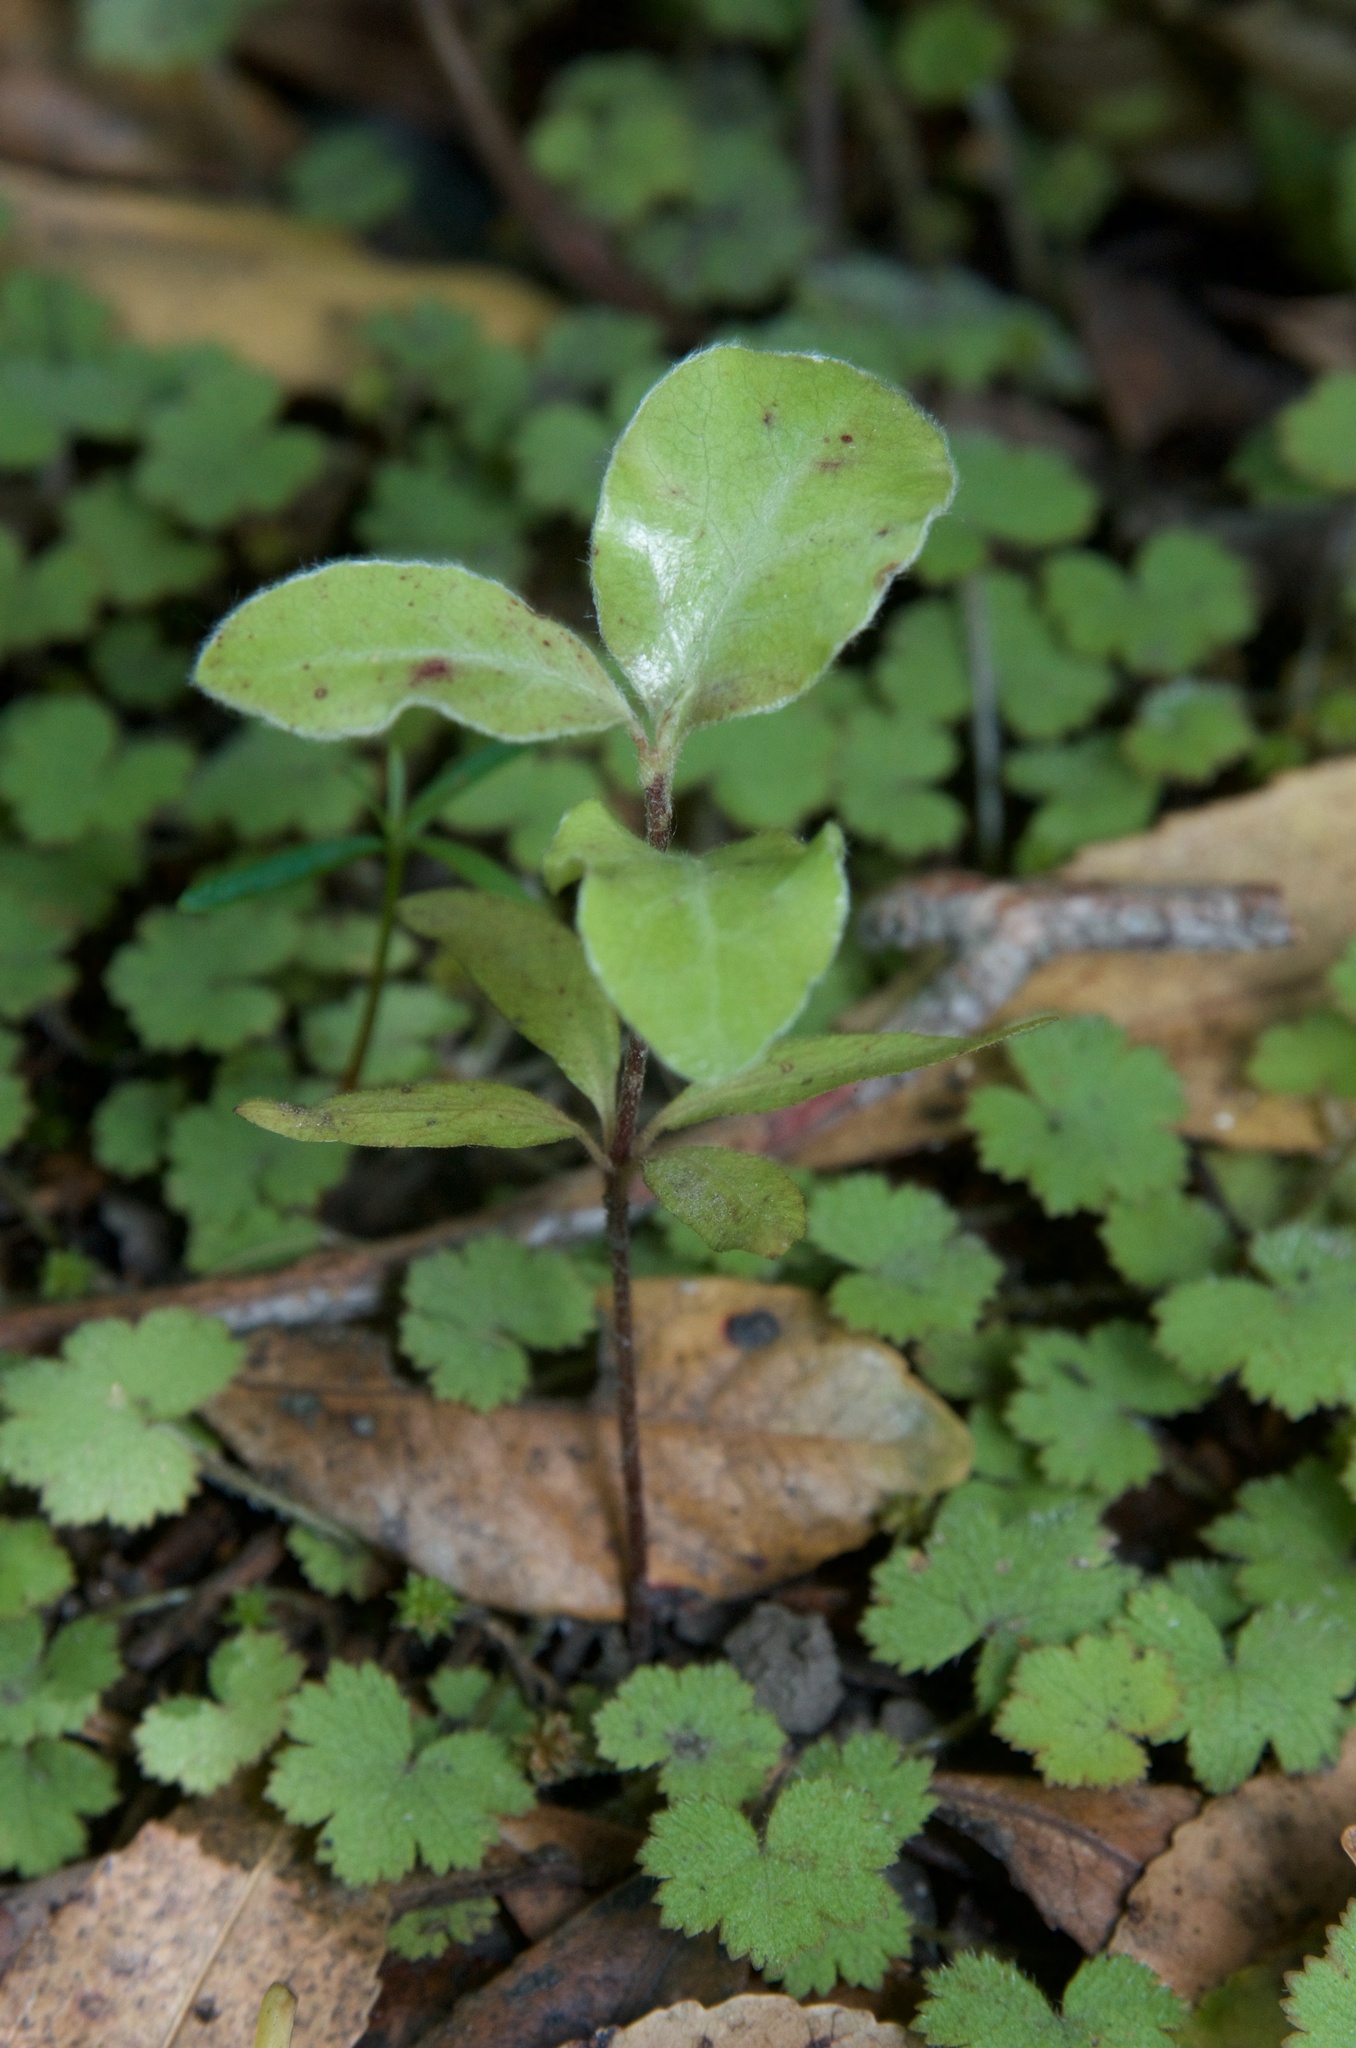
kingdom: Plantae
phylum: Tracheophyta
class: Magnoliopsida
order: Apiales
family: Pittosporaceae
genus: Pittosporum
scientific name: Pittosporum tenuifolium
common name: Kohuhu
